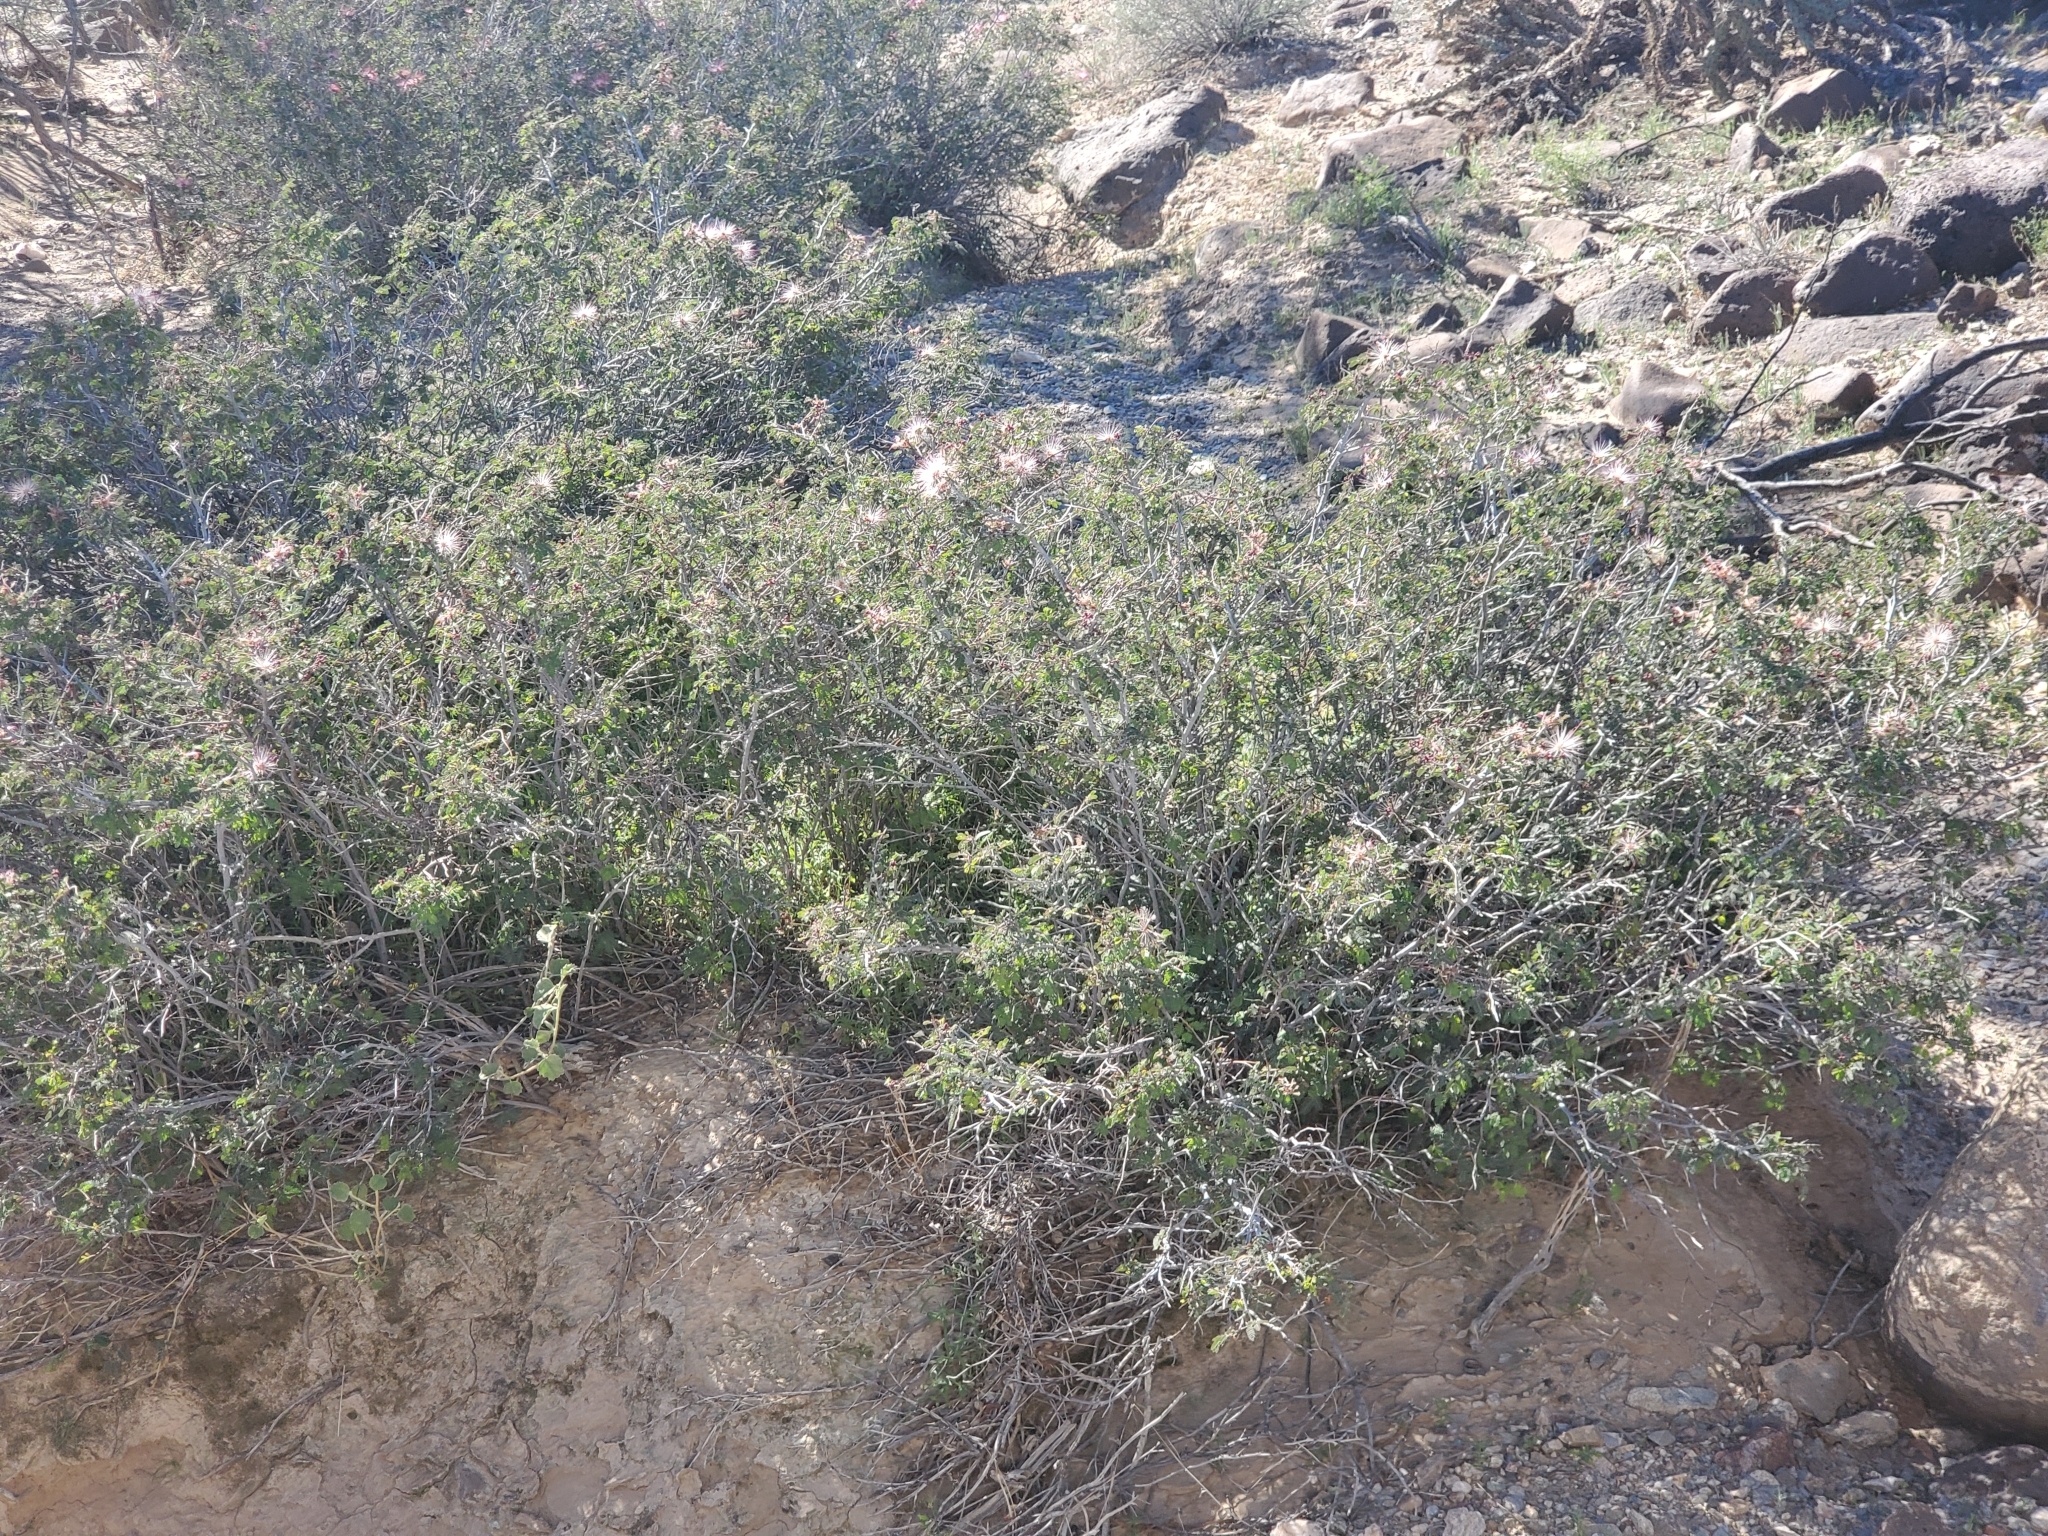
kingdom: Plantae
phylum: Tracheophyta
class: Magnoliopsida
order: Fabales
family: Fabaceae
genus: Calliandra
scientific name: Calliandra eriophylla
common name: Fairy-duster
